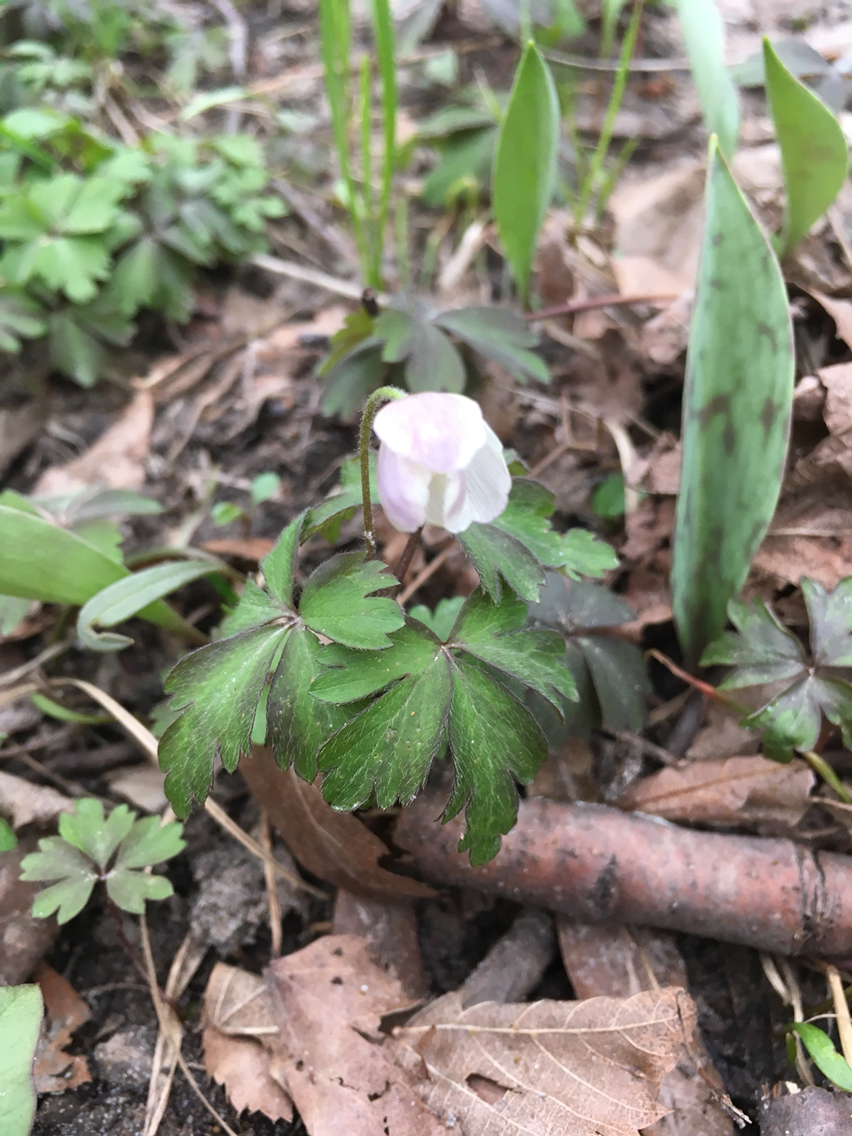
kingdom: Plantae
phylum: Tracheophyta
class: Magnoliopsida
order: Ranunculales
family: Ranunculaceae
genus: Anemone
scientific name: Anemone quinquefolia
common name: Wood anemone
